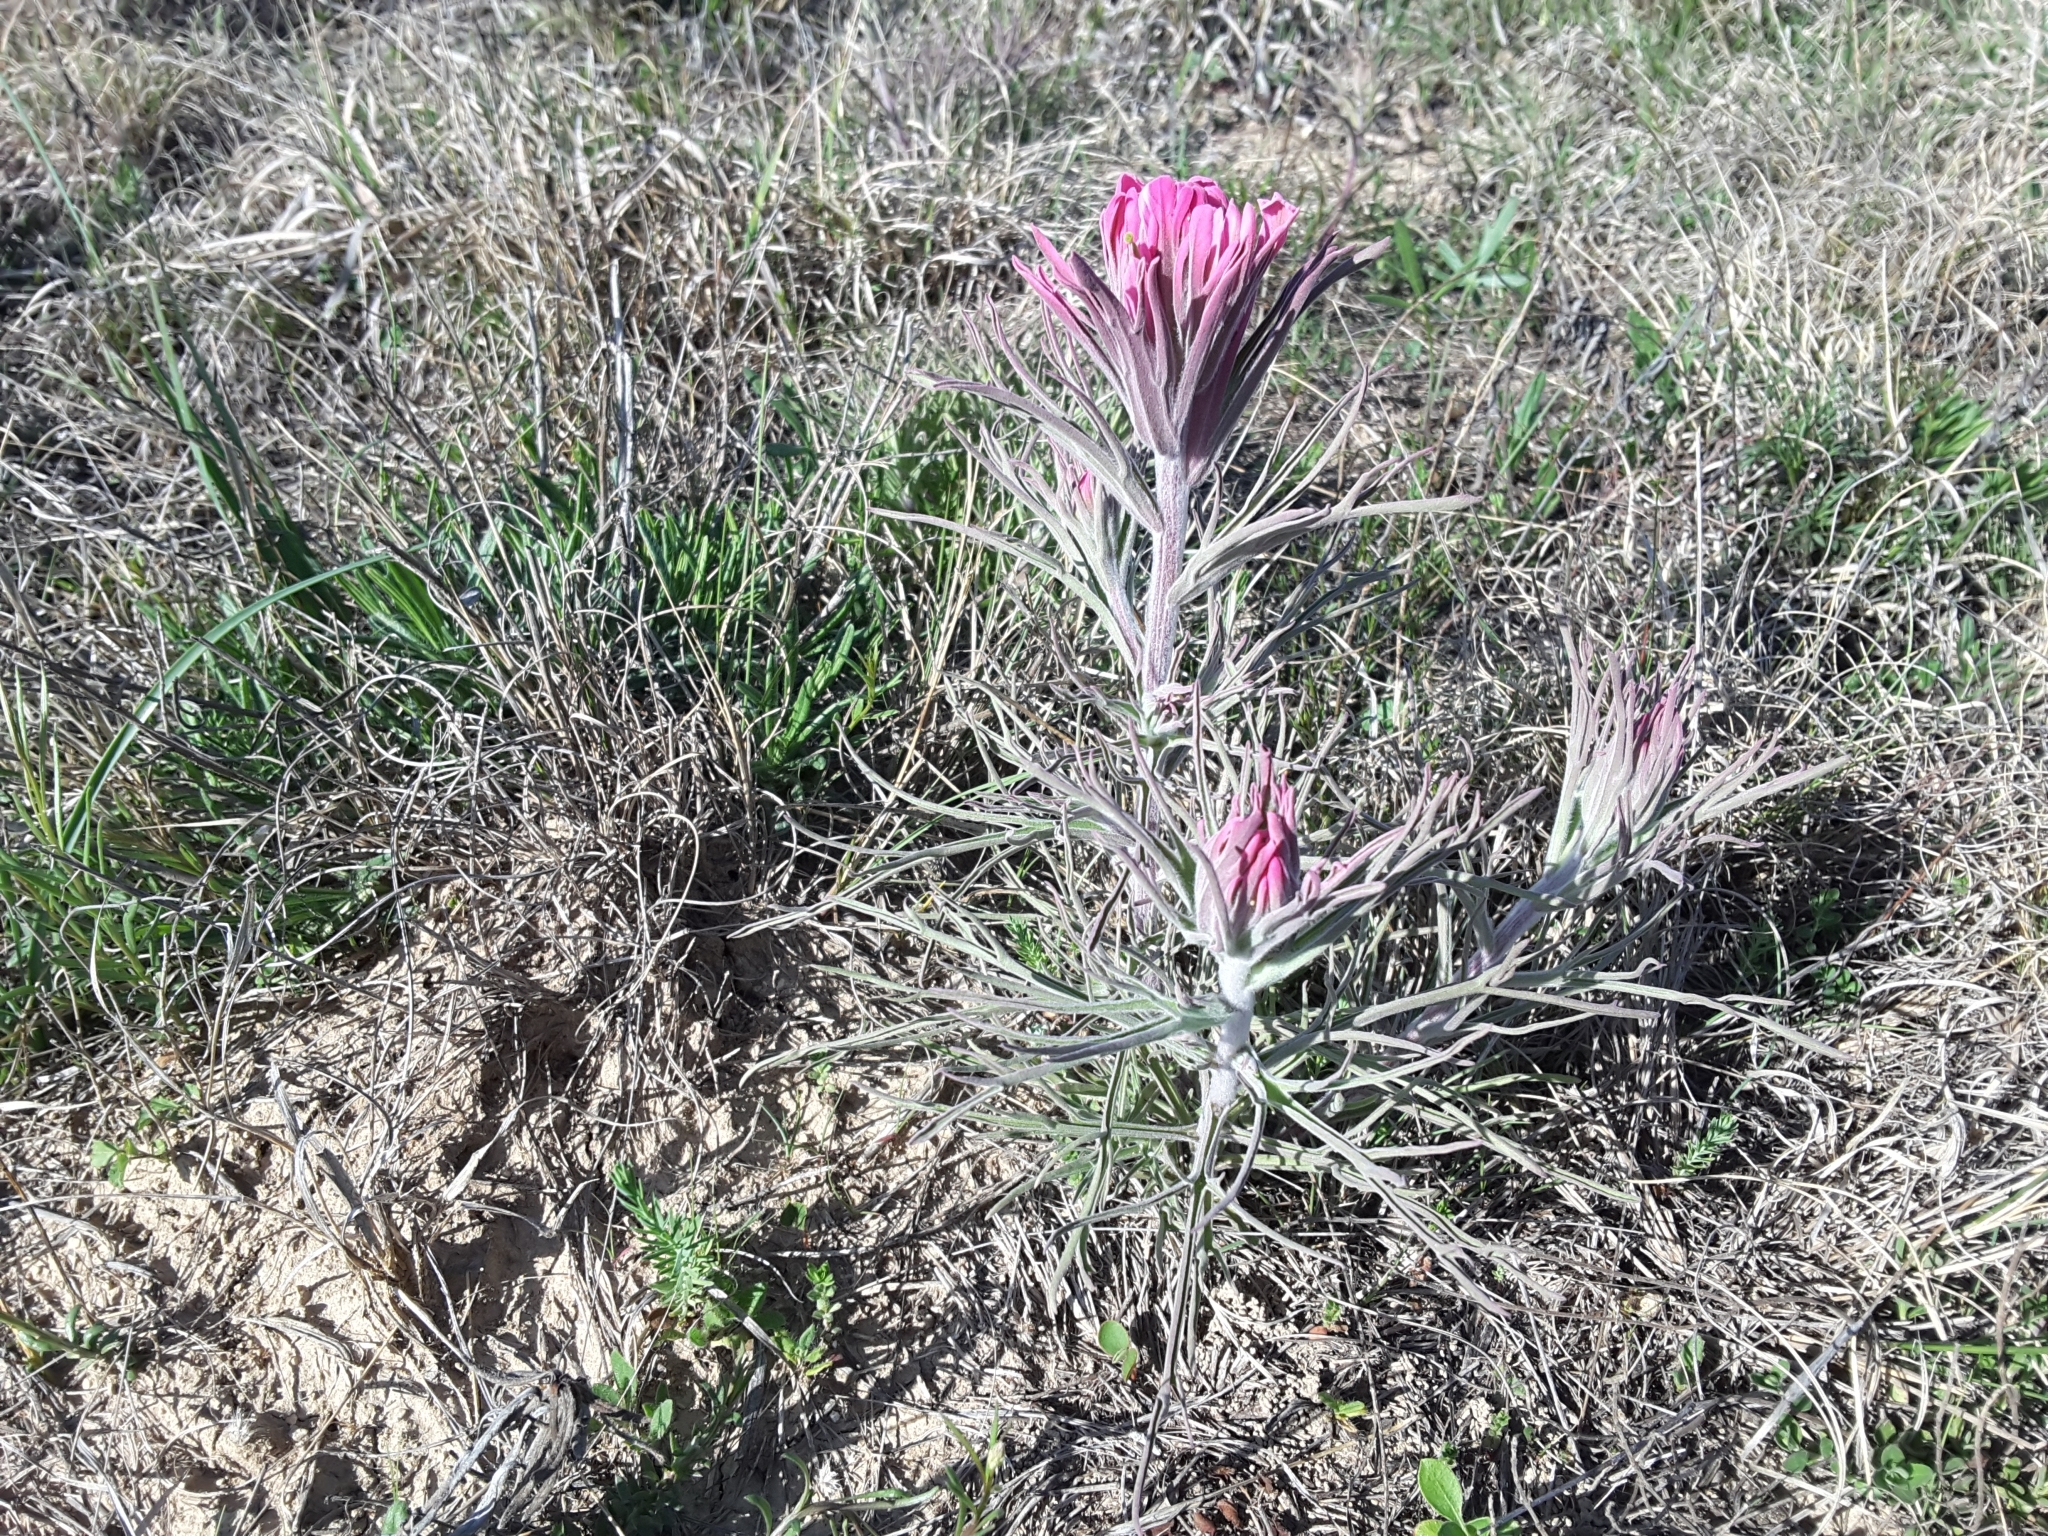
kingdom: Plantae
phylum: Tracheophyta
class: Magnoliopsida
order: Lamiales
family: Orobanchaceae
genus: Castilleja
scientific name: Castilleja purpurea
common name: Plains paintbrush
